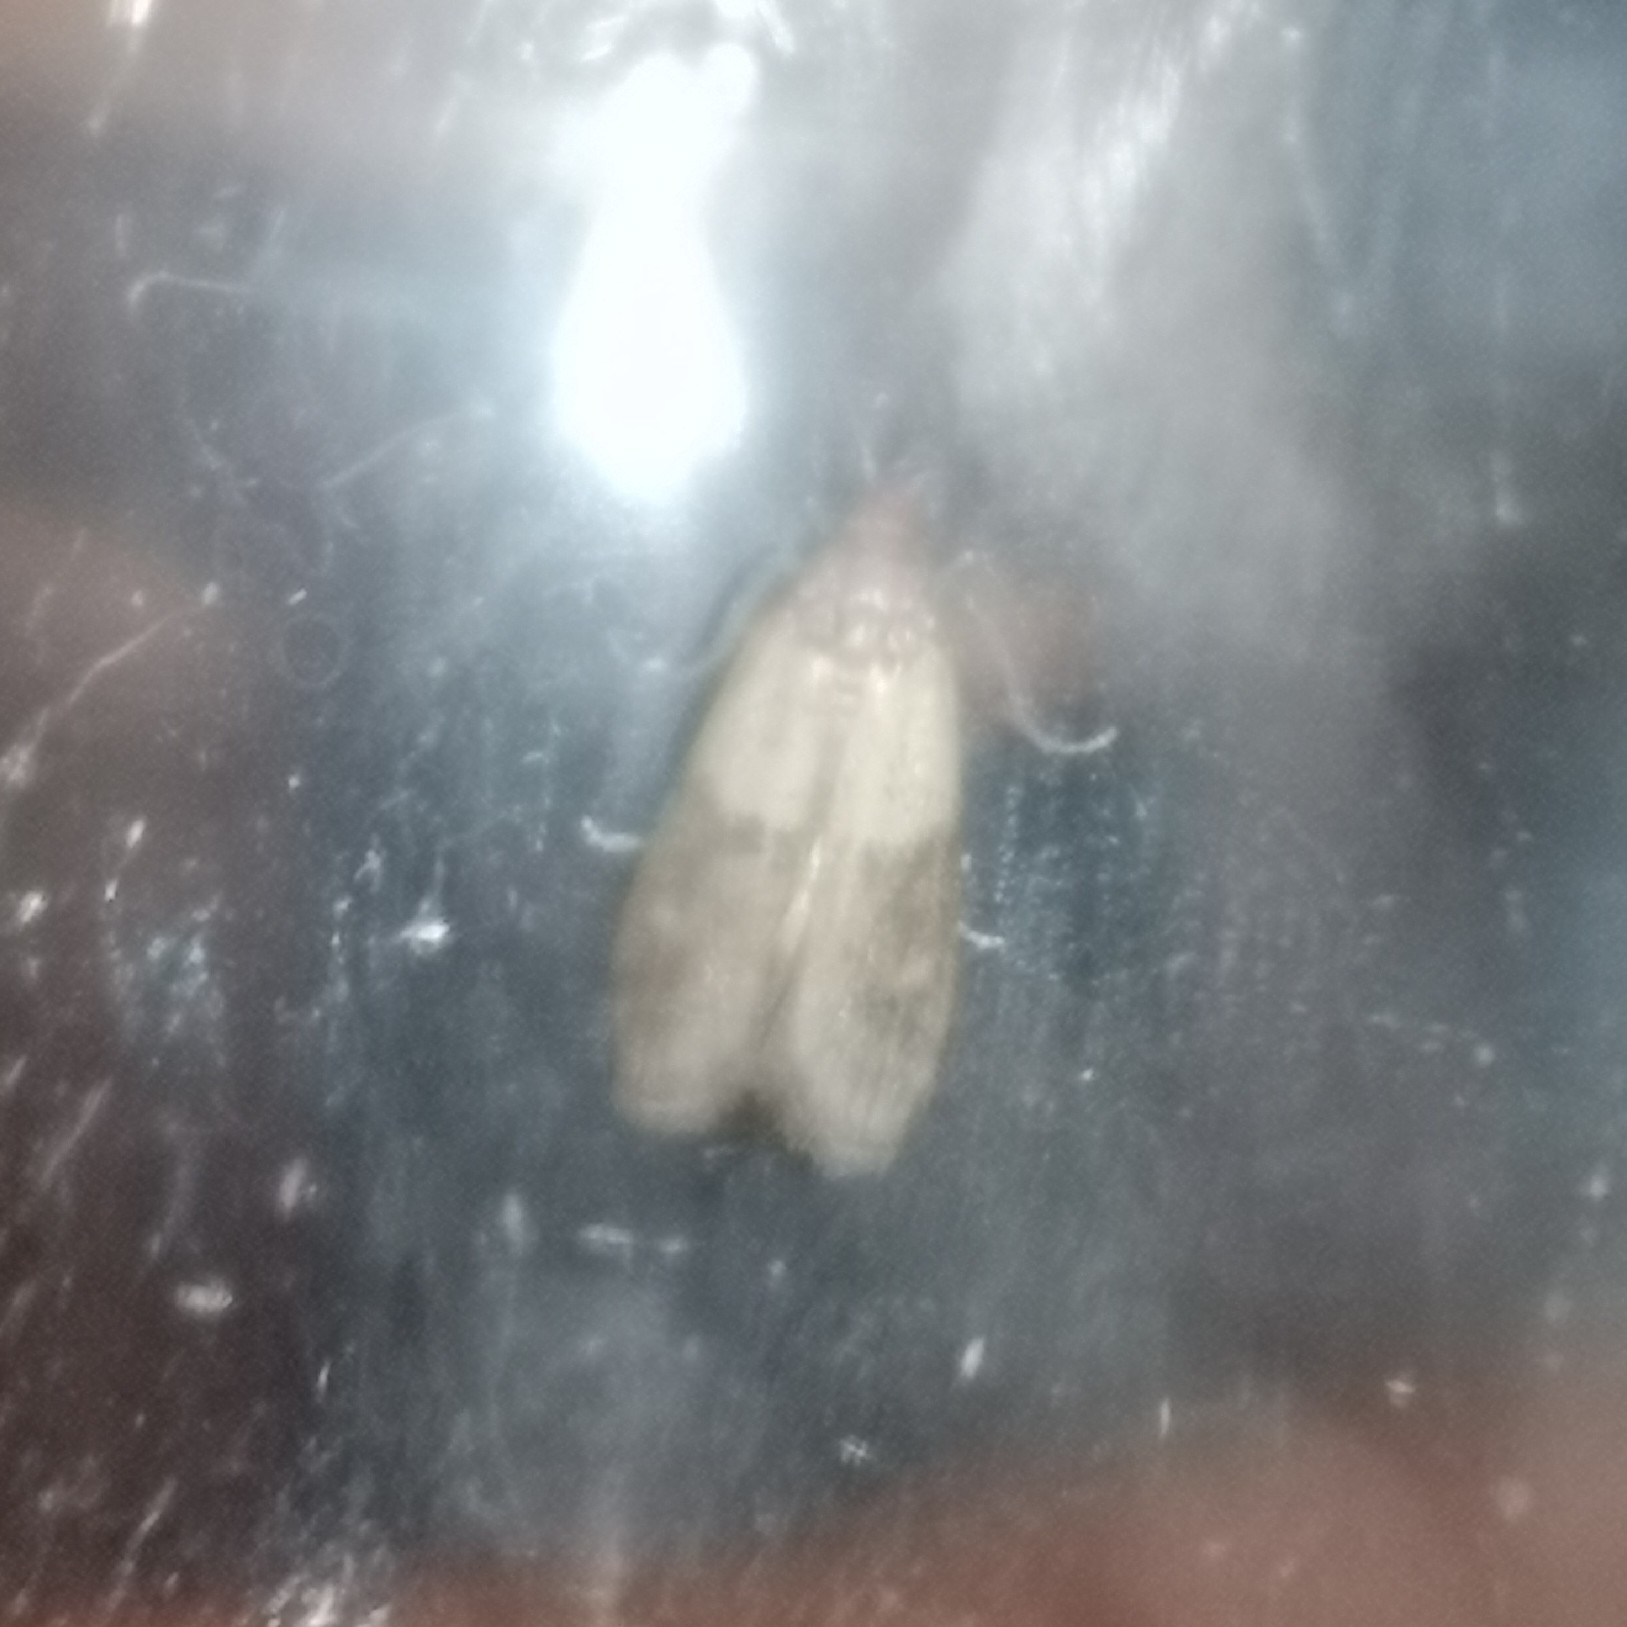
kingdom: Animalia
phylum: Arthropoda
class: Insecta
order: Lepidoptera
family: Pyralidae
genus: Plodia
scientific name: Plodia interpunctella
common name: Indian meal moth
